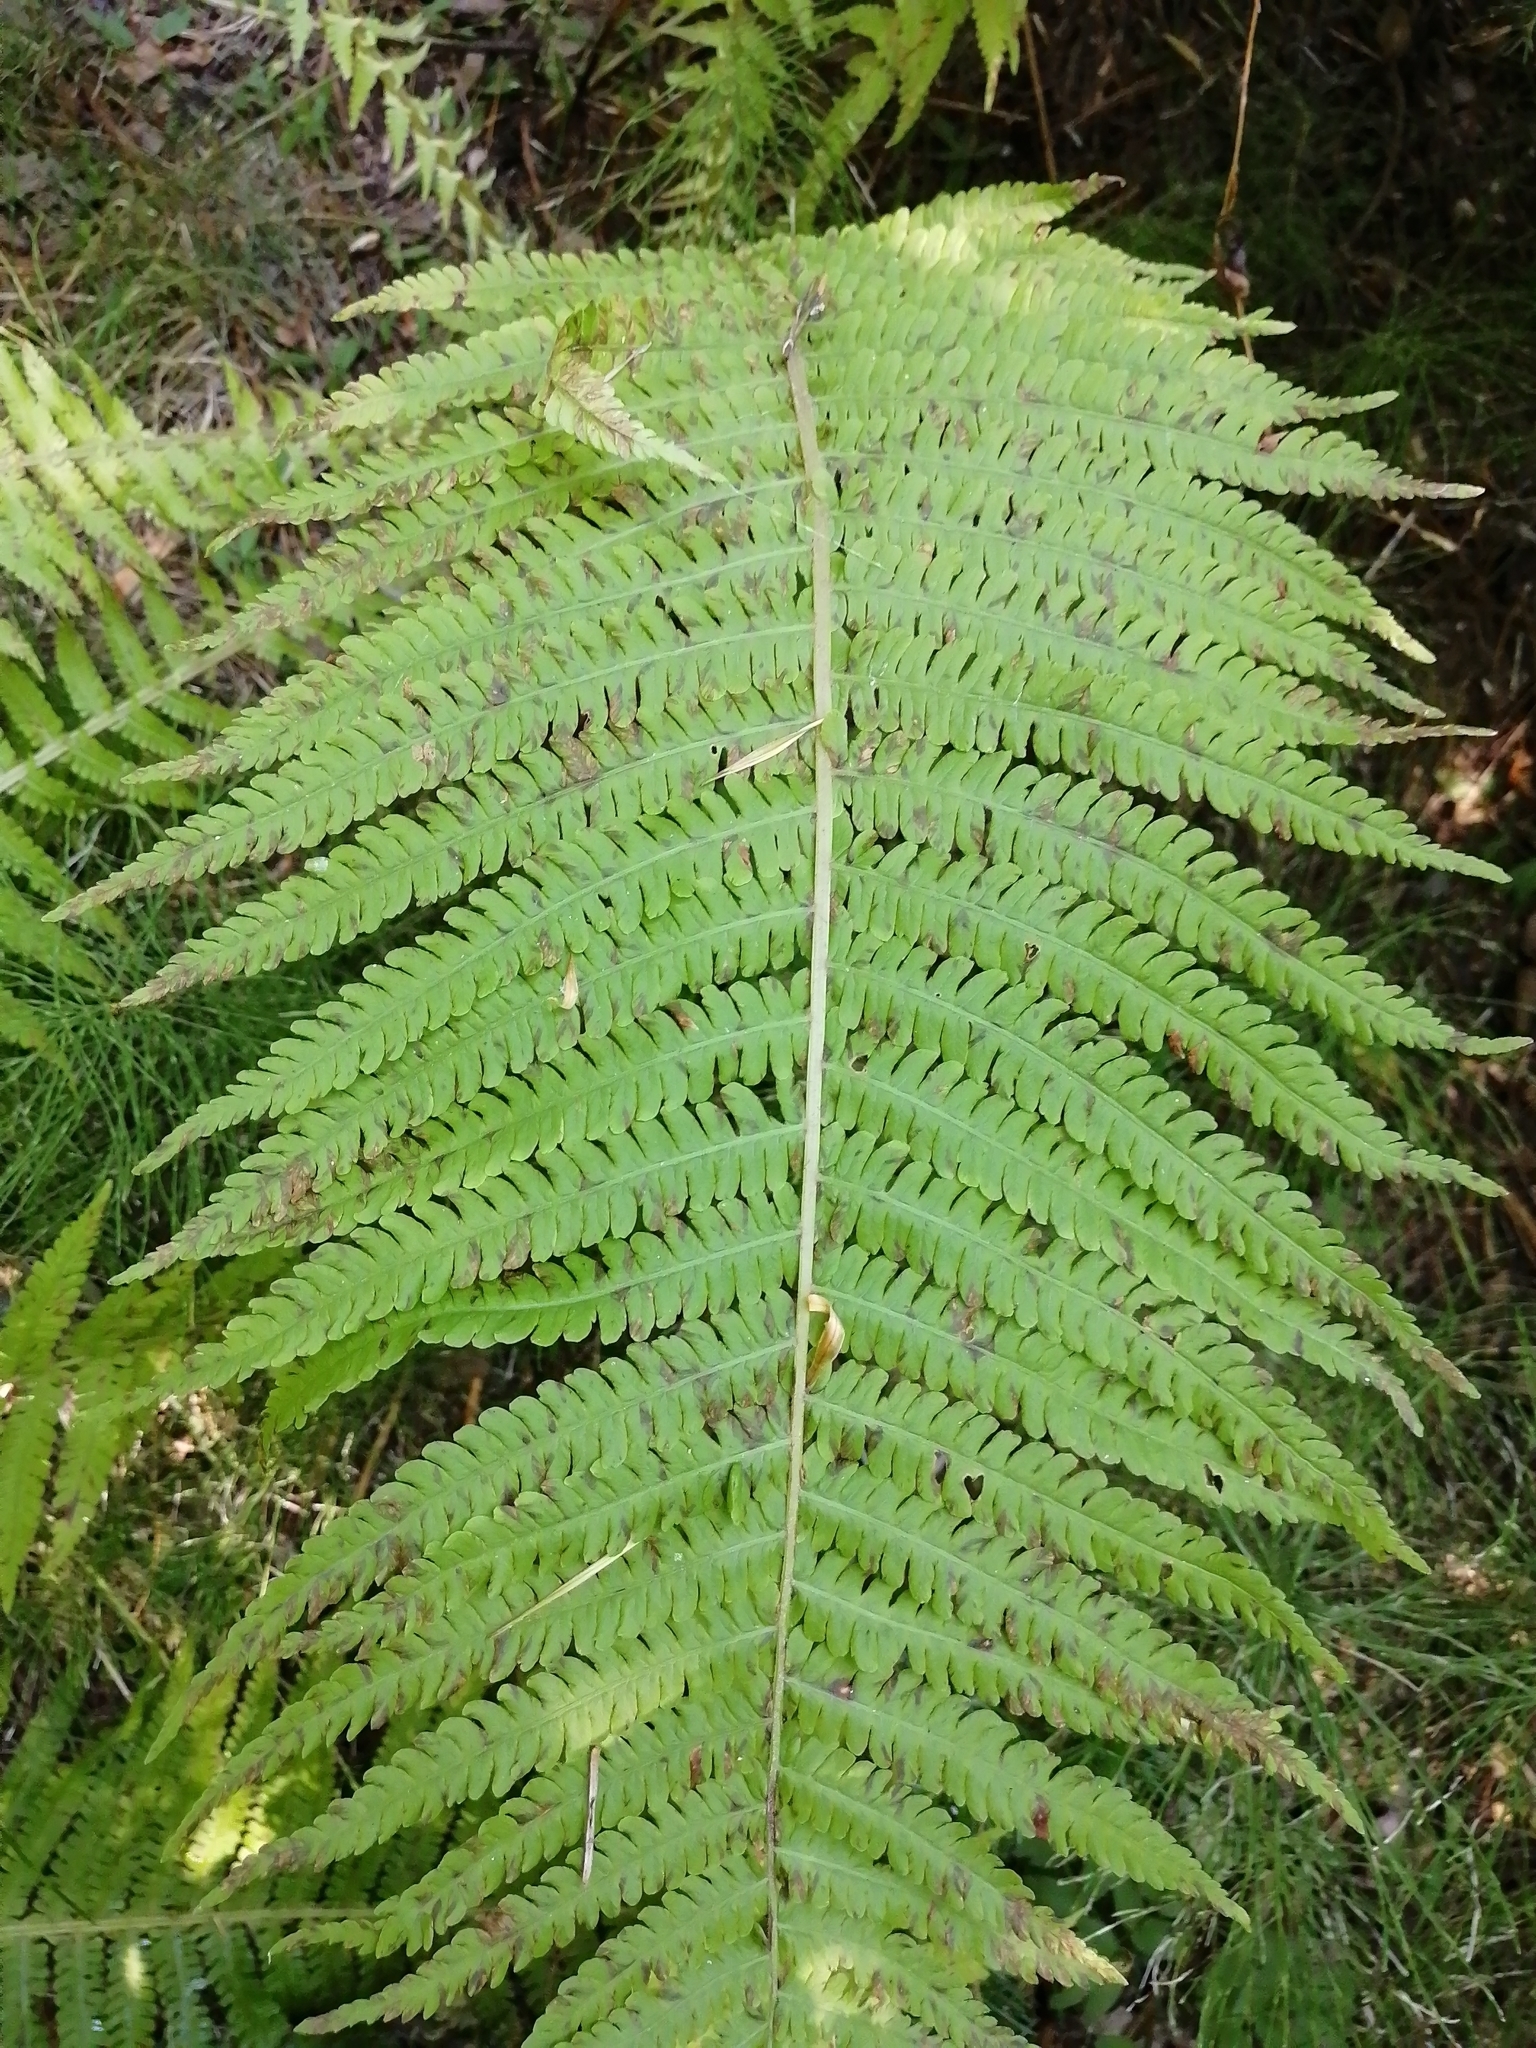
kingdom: Plantae
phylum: Tracheophyta
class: Polypodiopsida
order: Polypodiales
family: Onocleaceae
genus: Matteuccia
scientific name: Matteuccia struthiopteris
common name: Ostrich fern
